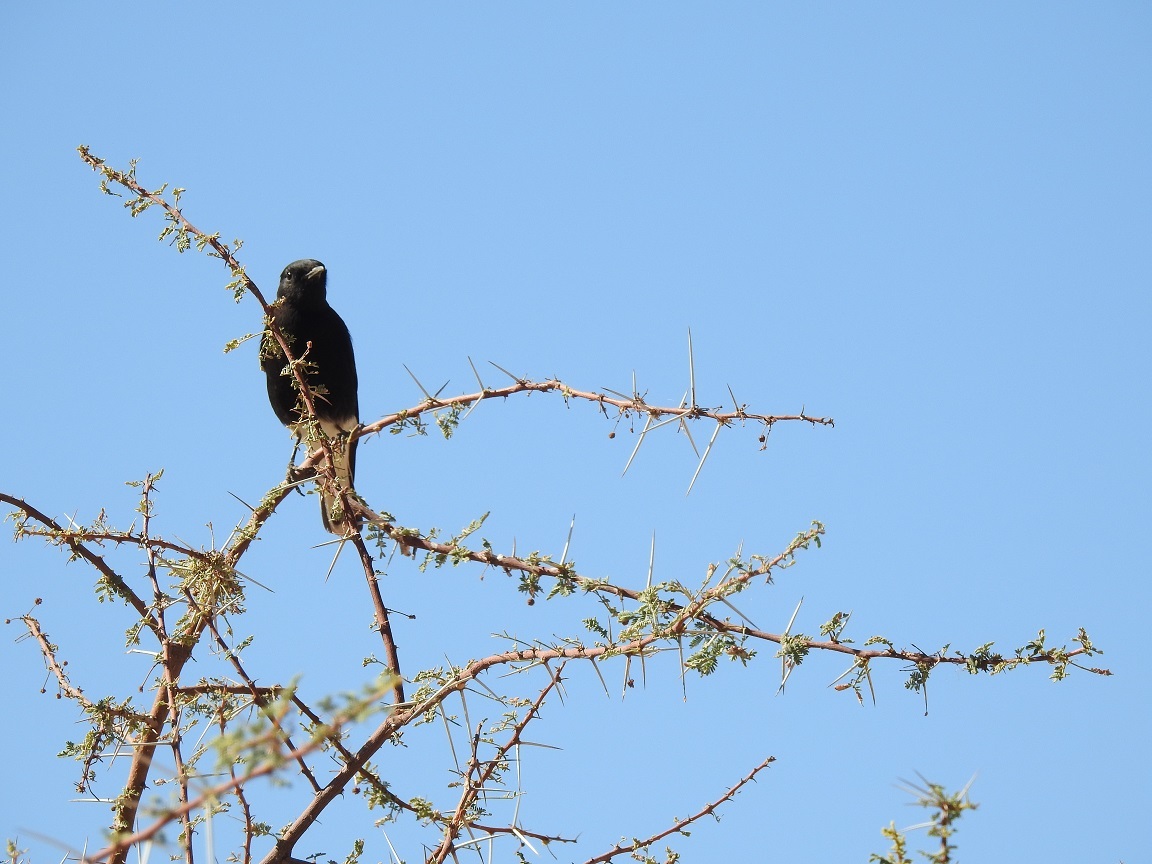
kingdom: Animalia
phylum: Chordata
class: Aves
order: Passeriformes
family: Muscicapidae
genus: Oenanthe
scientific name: Oenanthe leucopyga
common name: White-crowned wheatear
